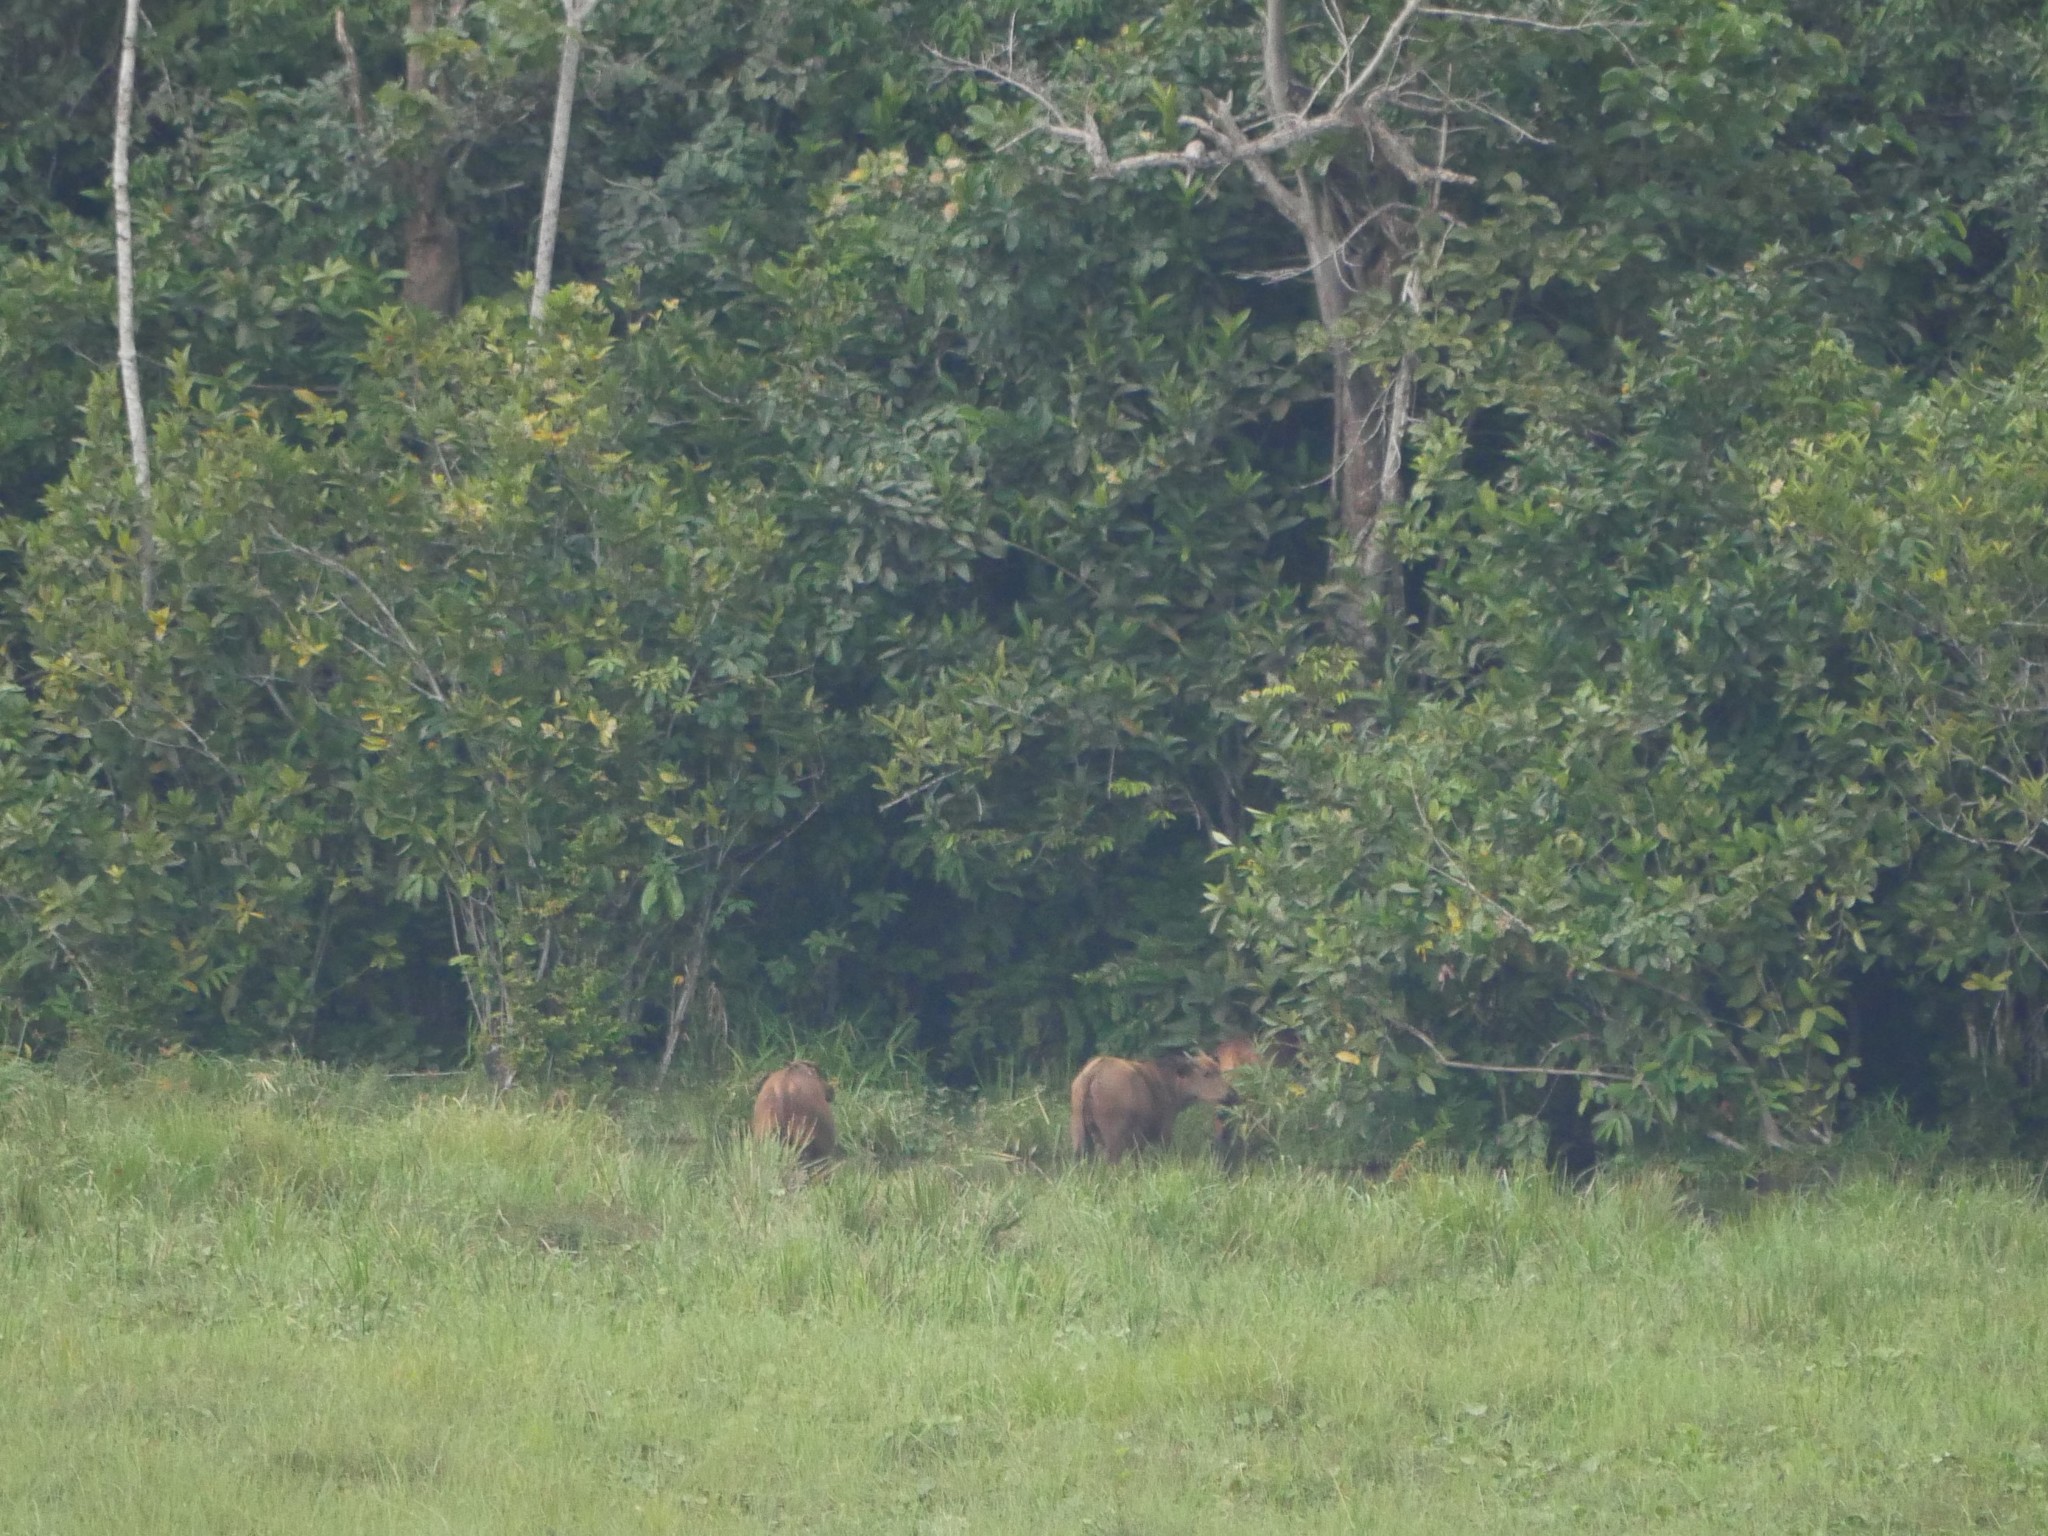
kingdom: Animalia
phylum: Chordata
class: Mammalia
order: Artiodactyla
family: Bovidae
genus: Syncerus
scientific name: Syncerus caffer
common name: African buffalo
